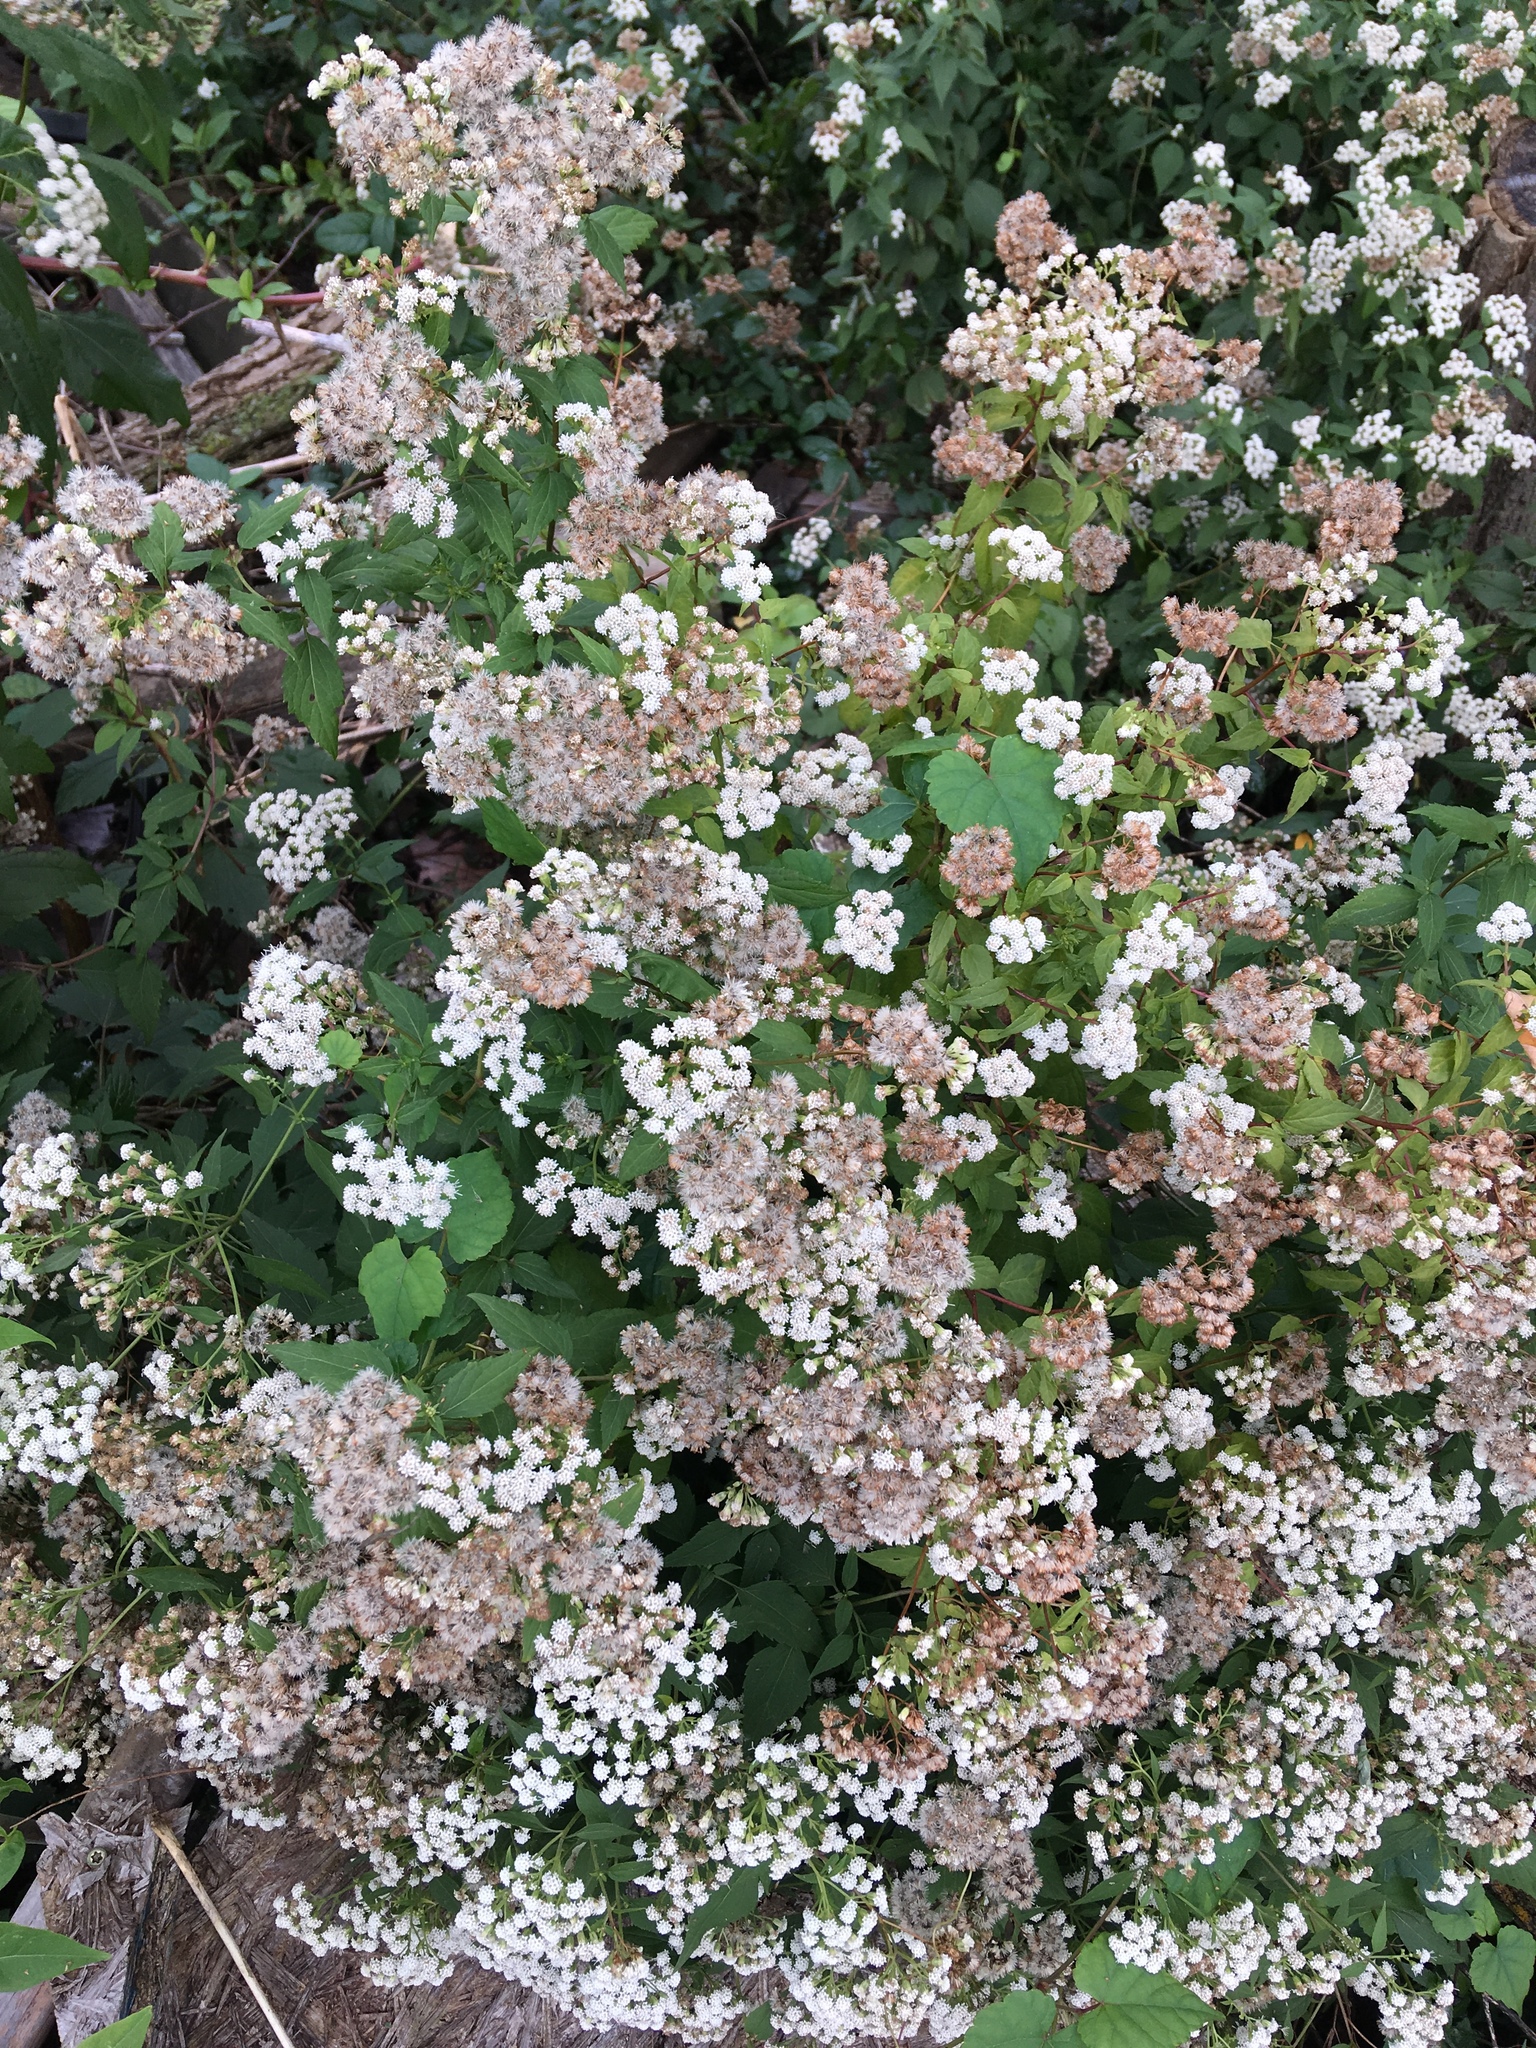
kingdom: Plantae
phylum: Tracheophyta
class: Magnoliopsida
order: Asterales
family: Asteraceae
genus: Ageratina
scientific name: Ageratina altissima
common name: White snakeroot
